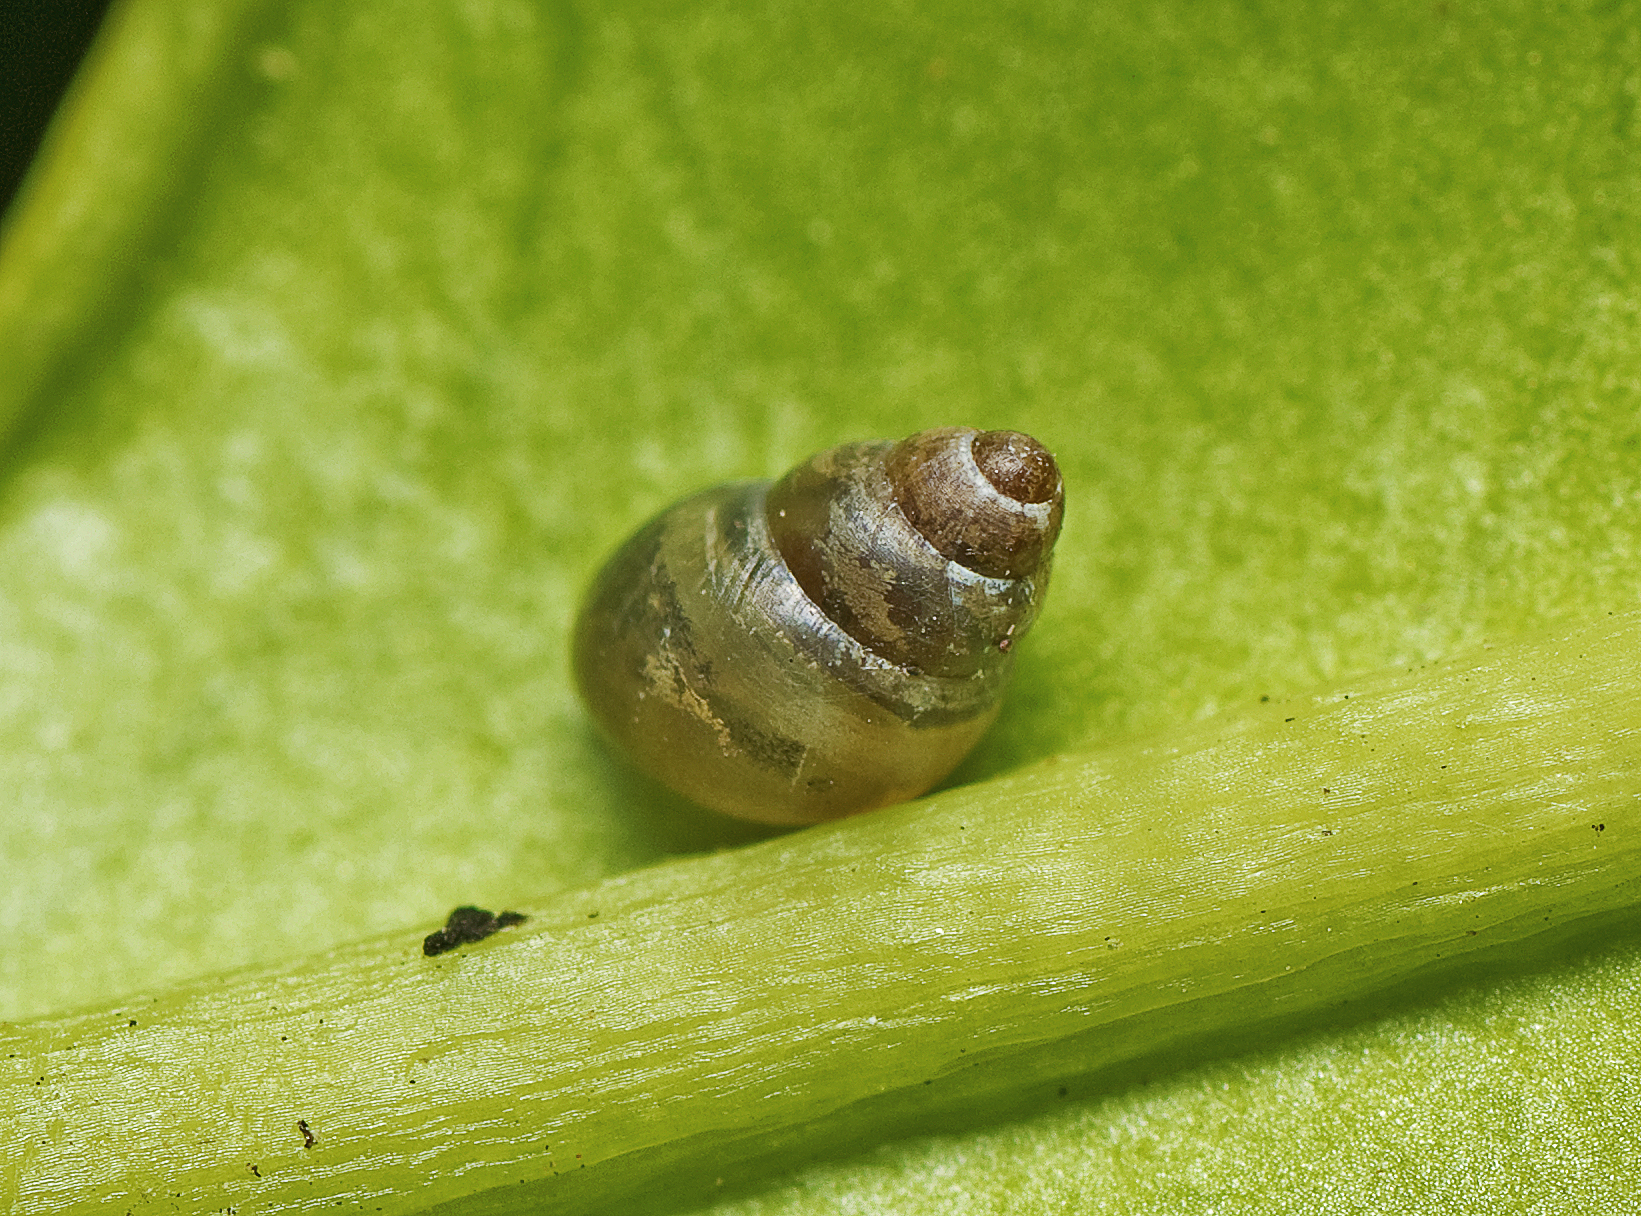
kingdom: Animalia
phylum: Mollusca
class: Gastropoda
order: Stylommatophora
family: Achatinellidae
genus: Tornatellinops
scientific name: Tornatellinops mastersi
